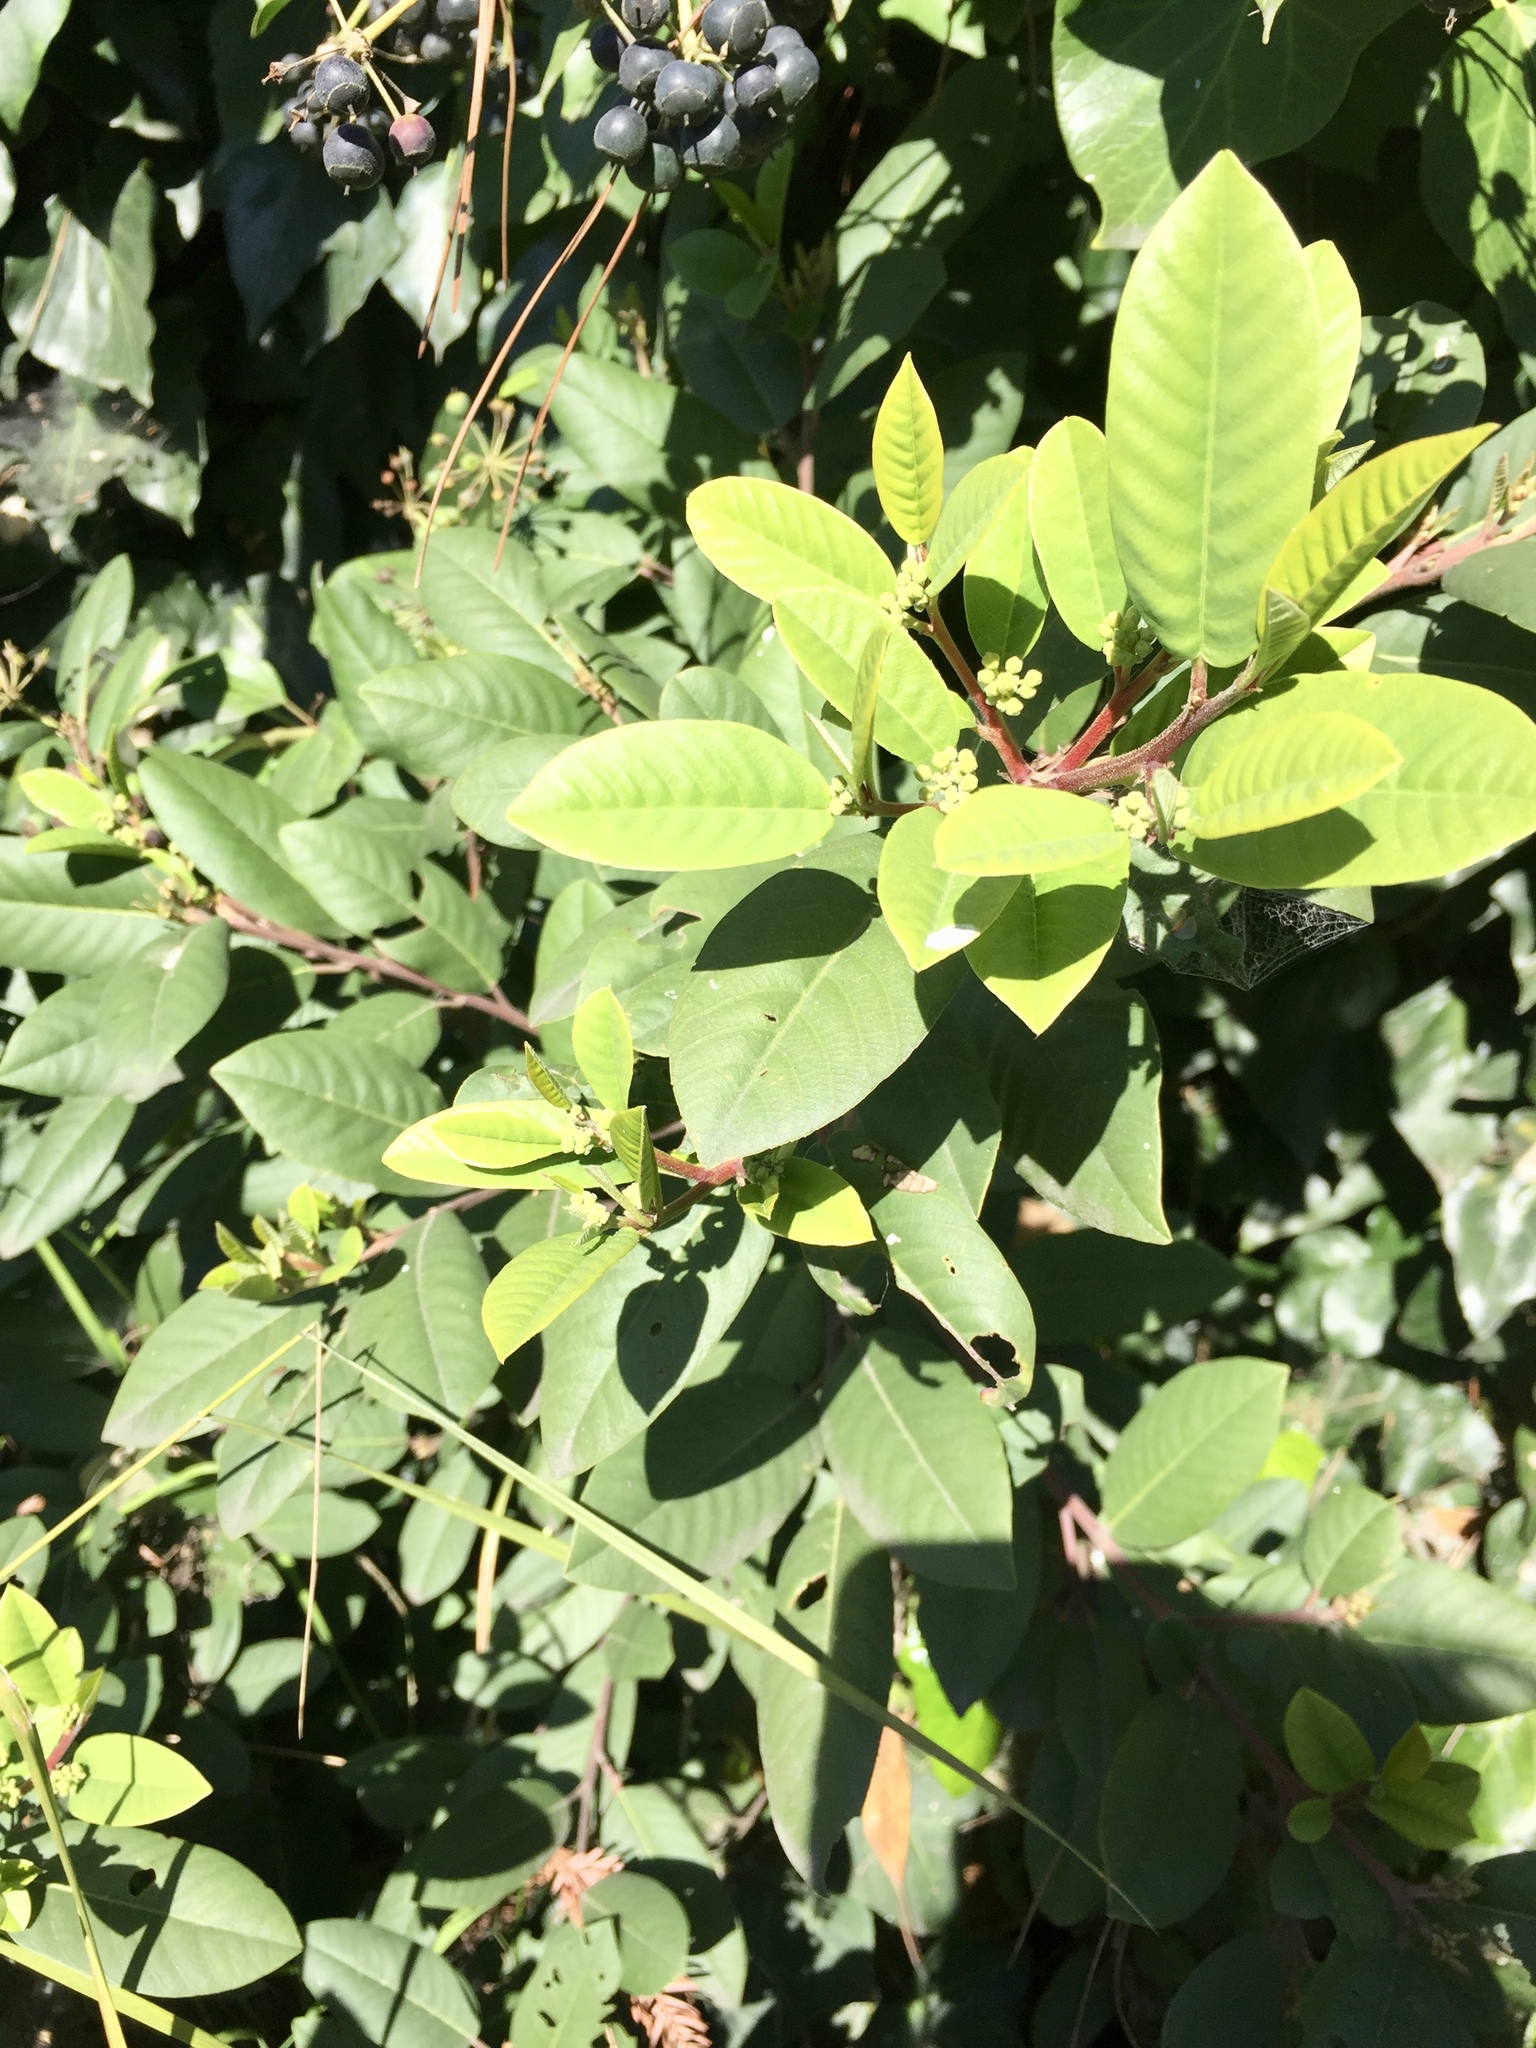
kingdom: Plantae
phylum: Tracheophyta
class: Magnoliopsida
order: Rosales
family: Rhamnaceae
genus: Frangula
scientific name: Frangula californica
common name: California buckthorn
